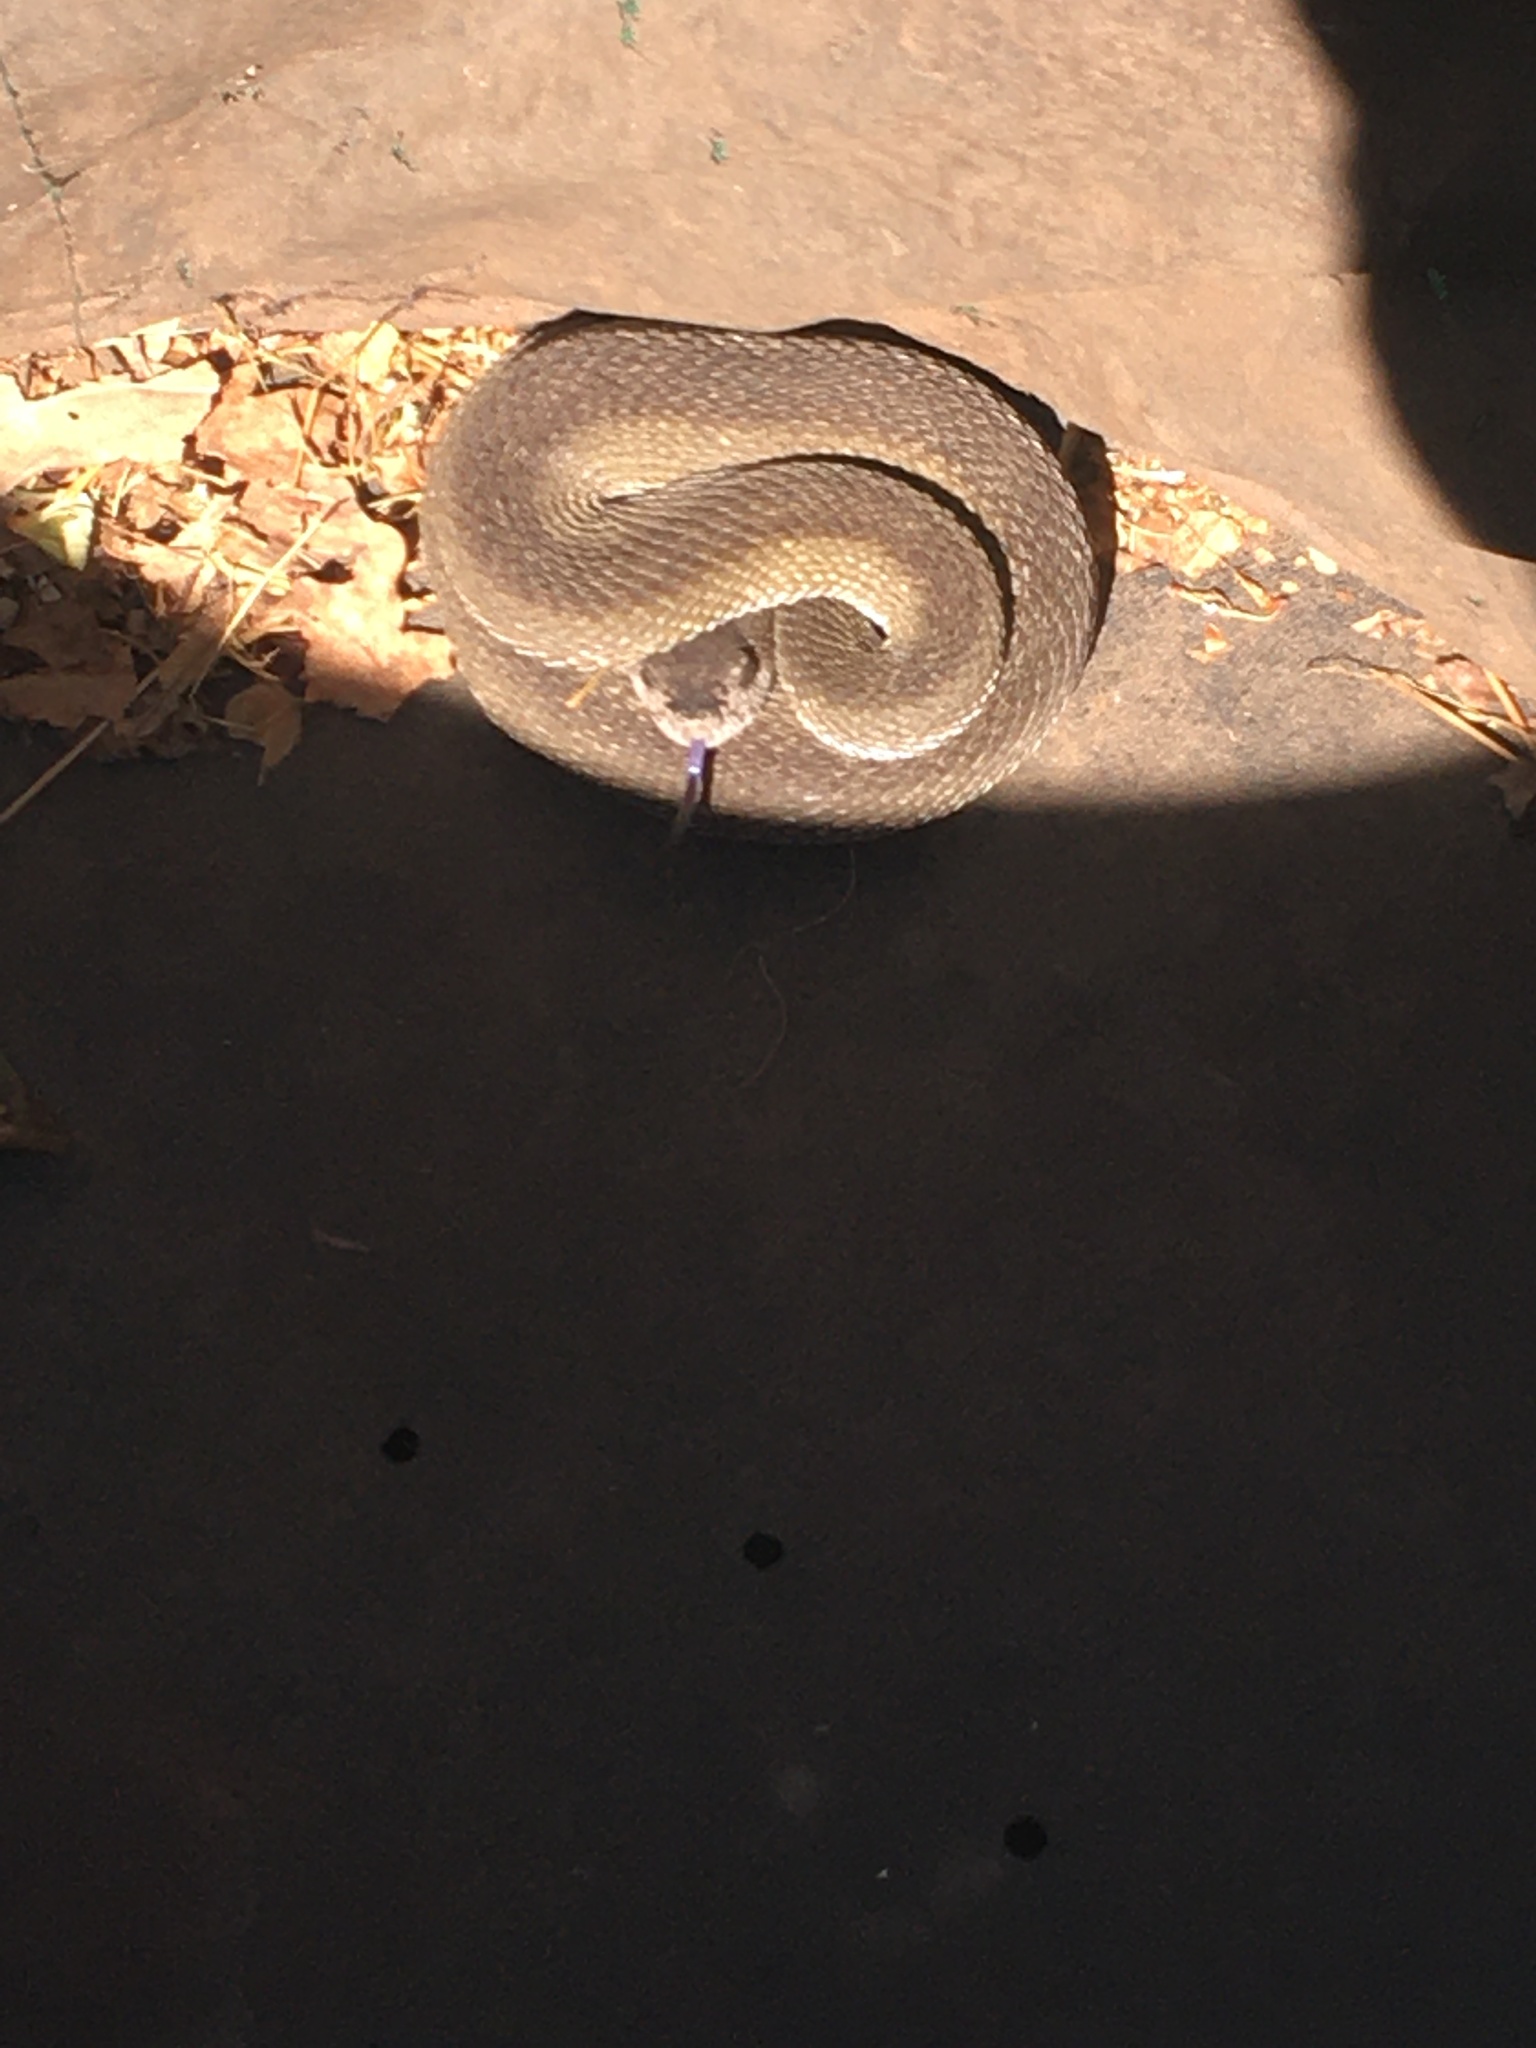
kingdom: Animalia
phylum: Chordata
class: Squamata
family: Viperidae
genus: Crotalus
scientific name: Crotalus oreganus
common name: Abyssus
